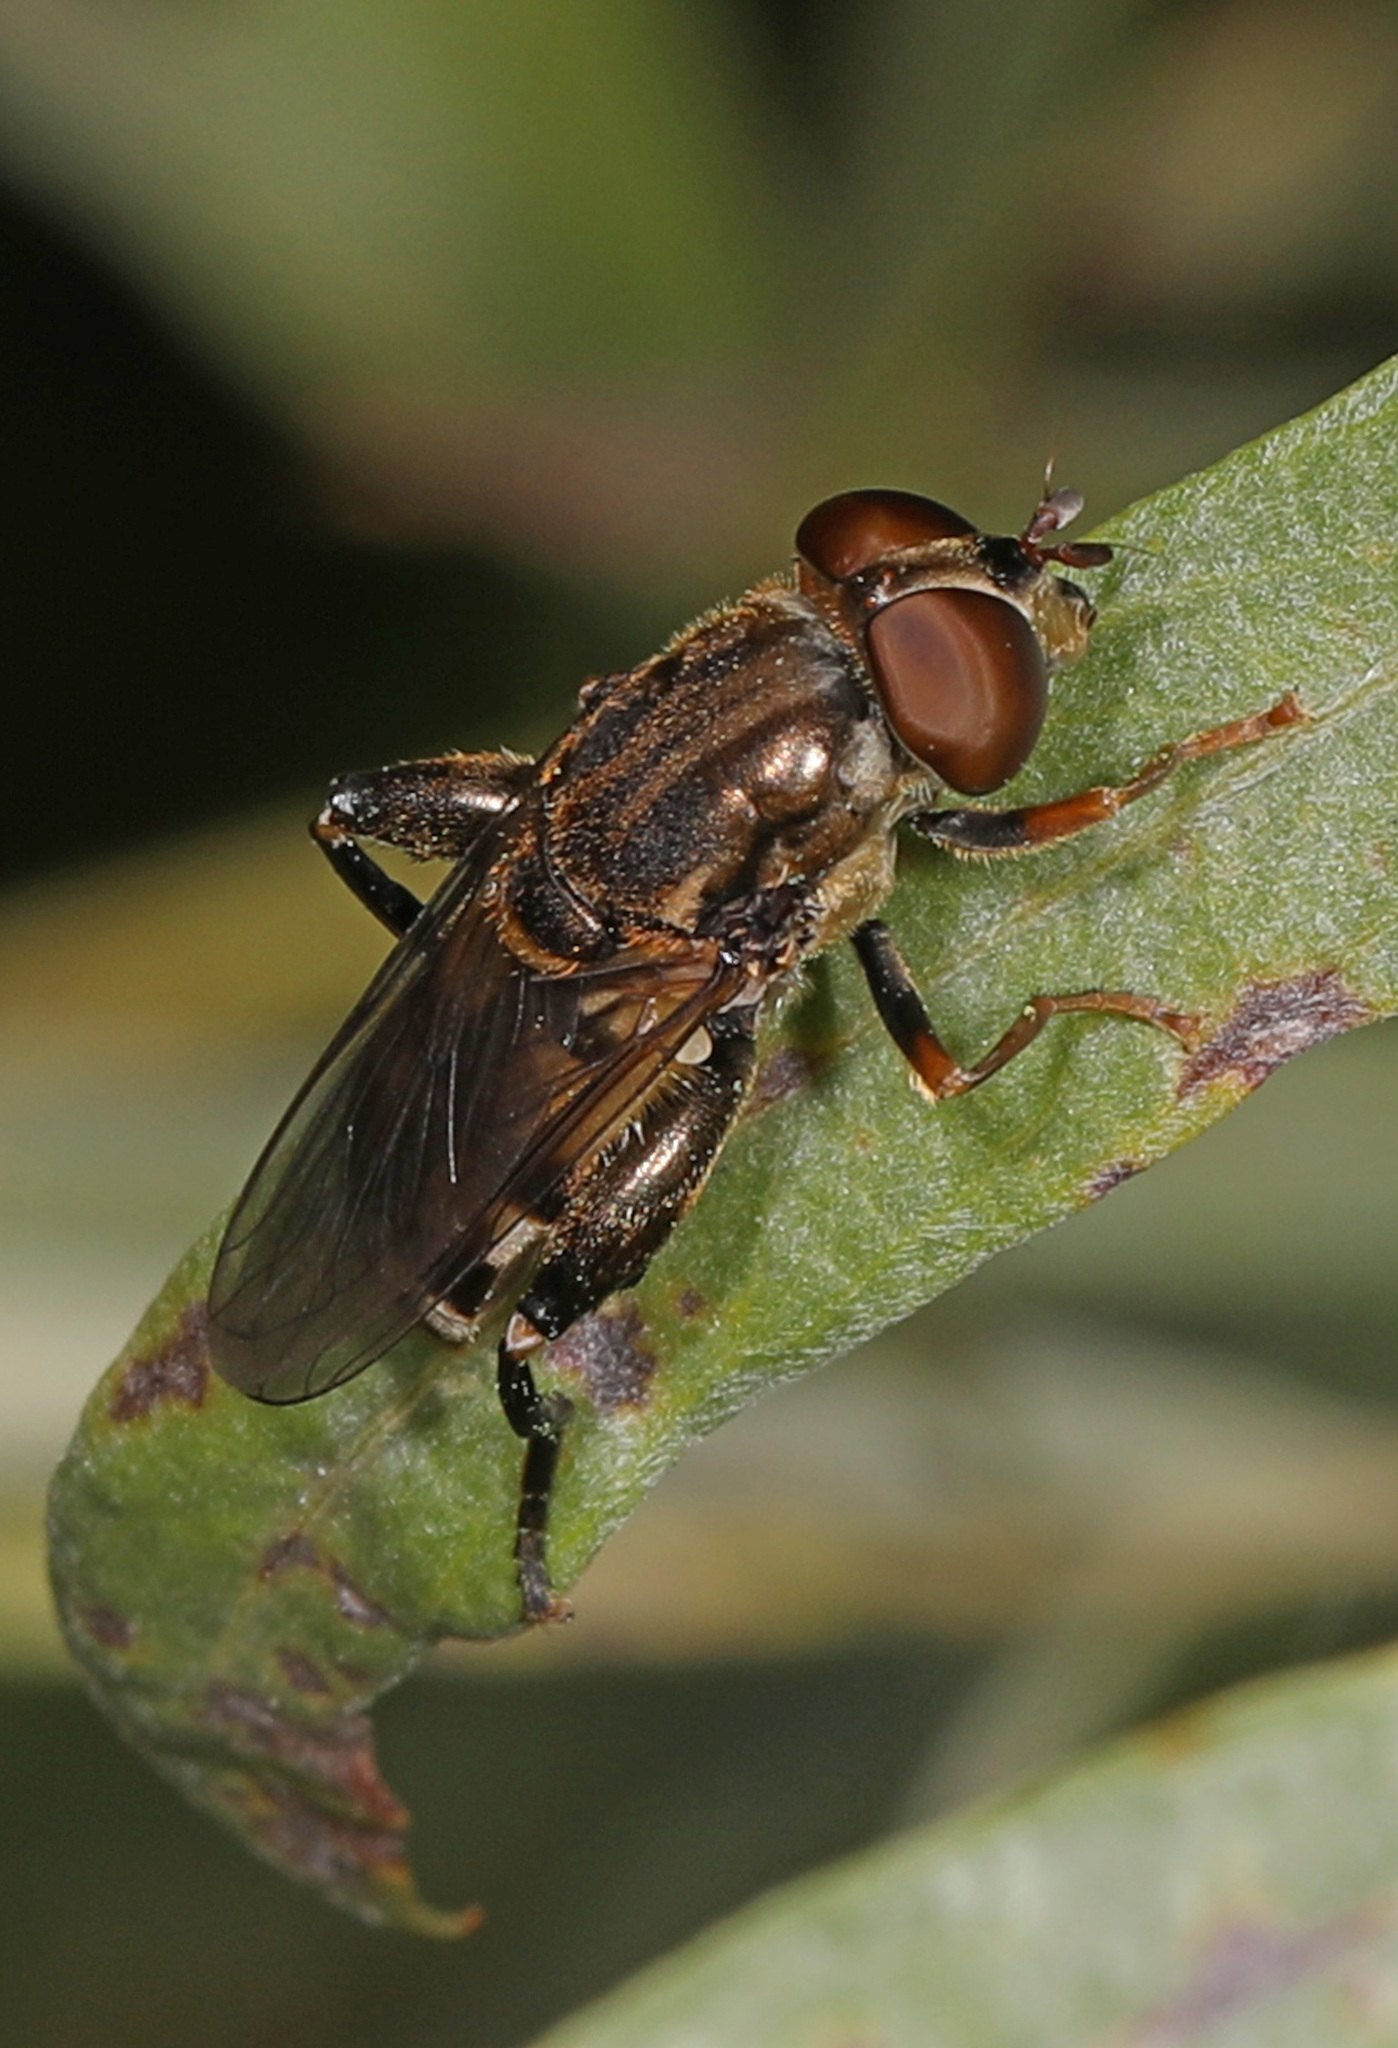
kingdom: Animalia
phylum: Arthropoda
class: Insecta
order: Diptera
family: Syrphidae
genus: Tropidia
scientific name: Tropidia quadrata
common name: Common thick-legged fly
